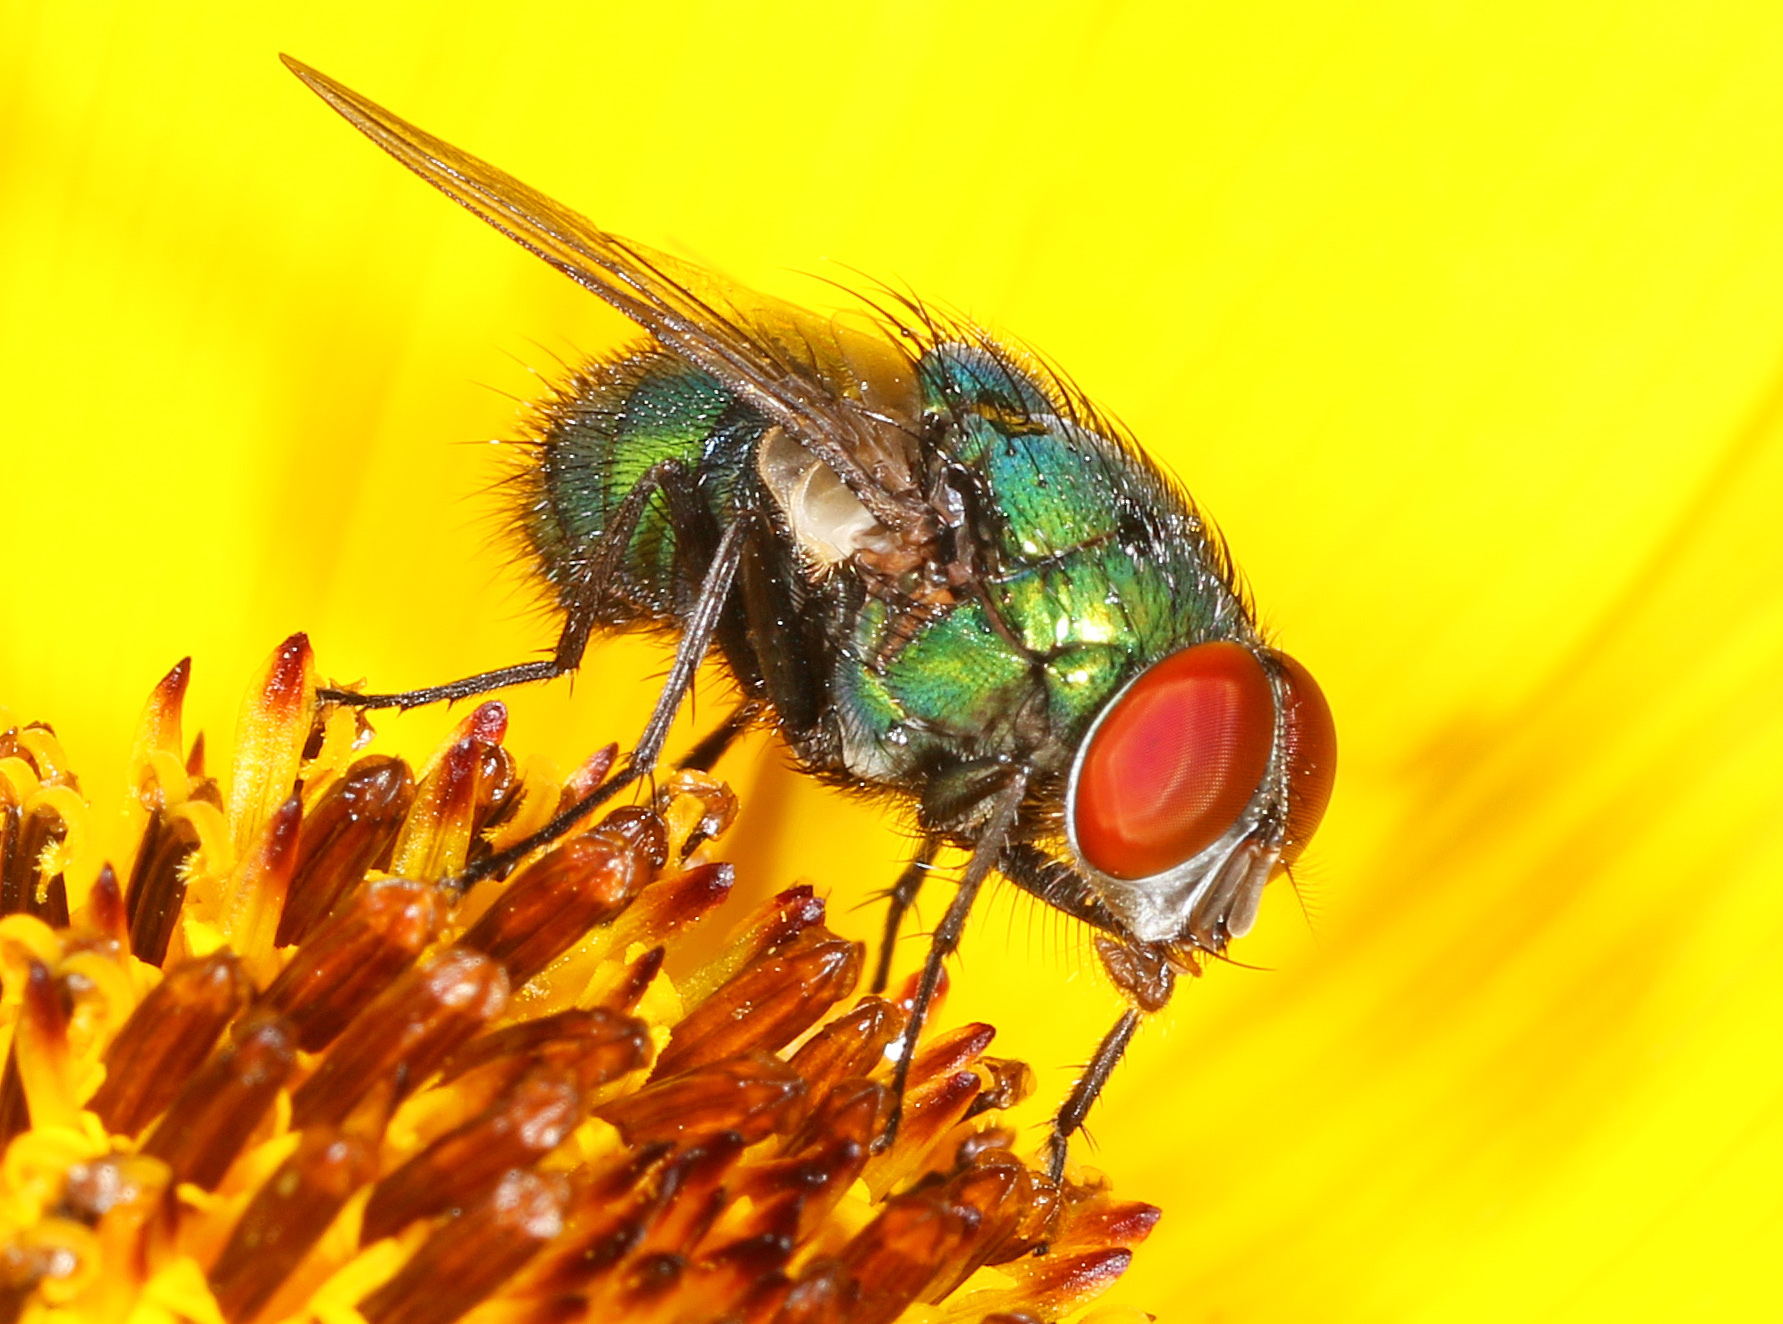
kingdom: Animalia
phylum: Arthropoda
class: Insecta
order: Diptera
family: Calliphoridae
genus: Lucilia
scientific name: Lucilia caeruleiviridis
